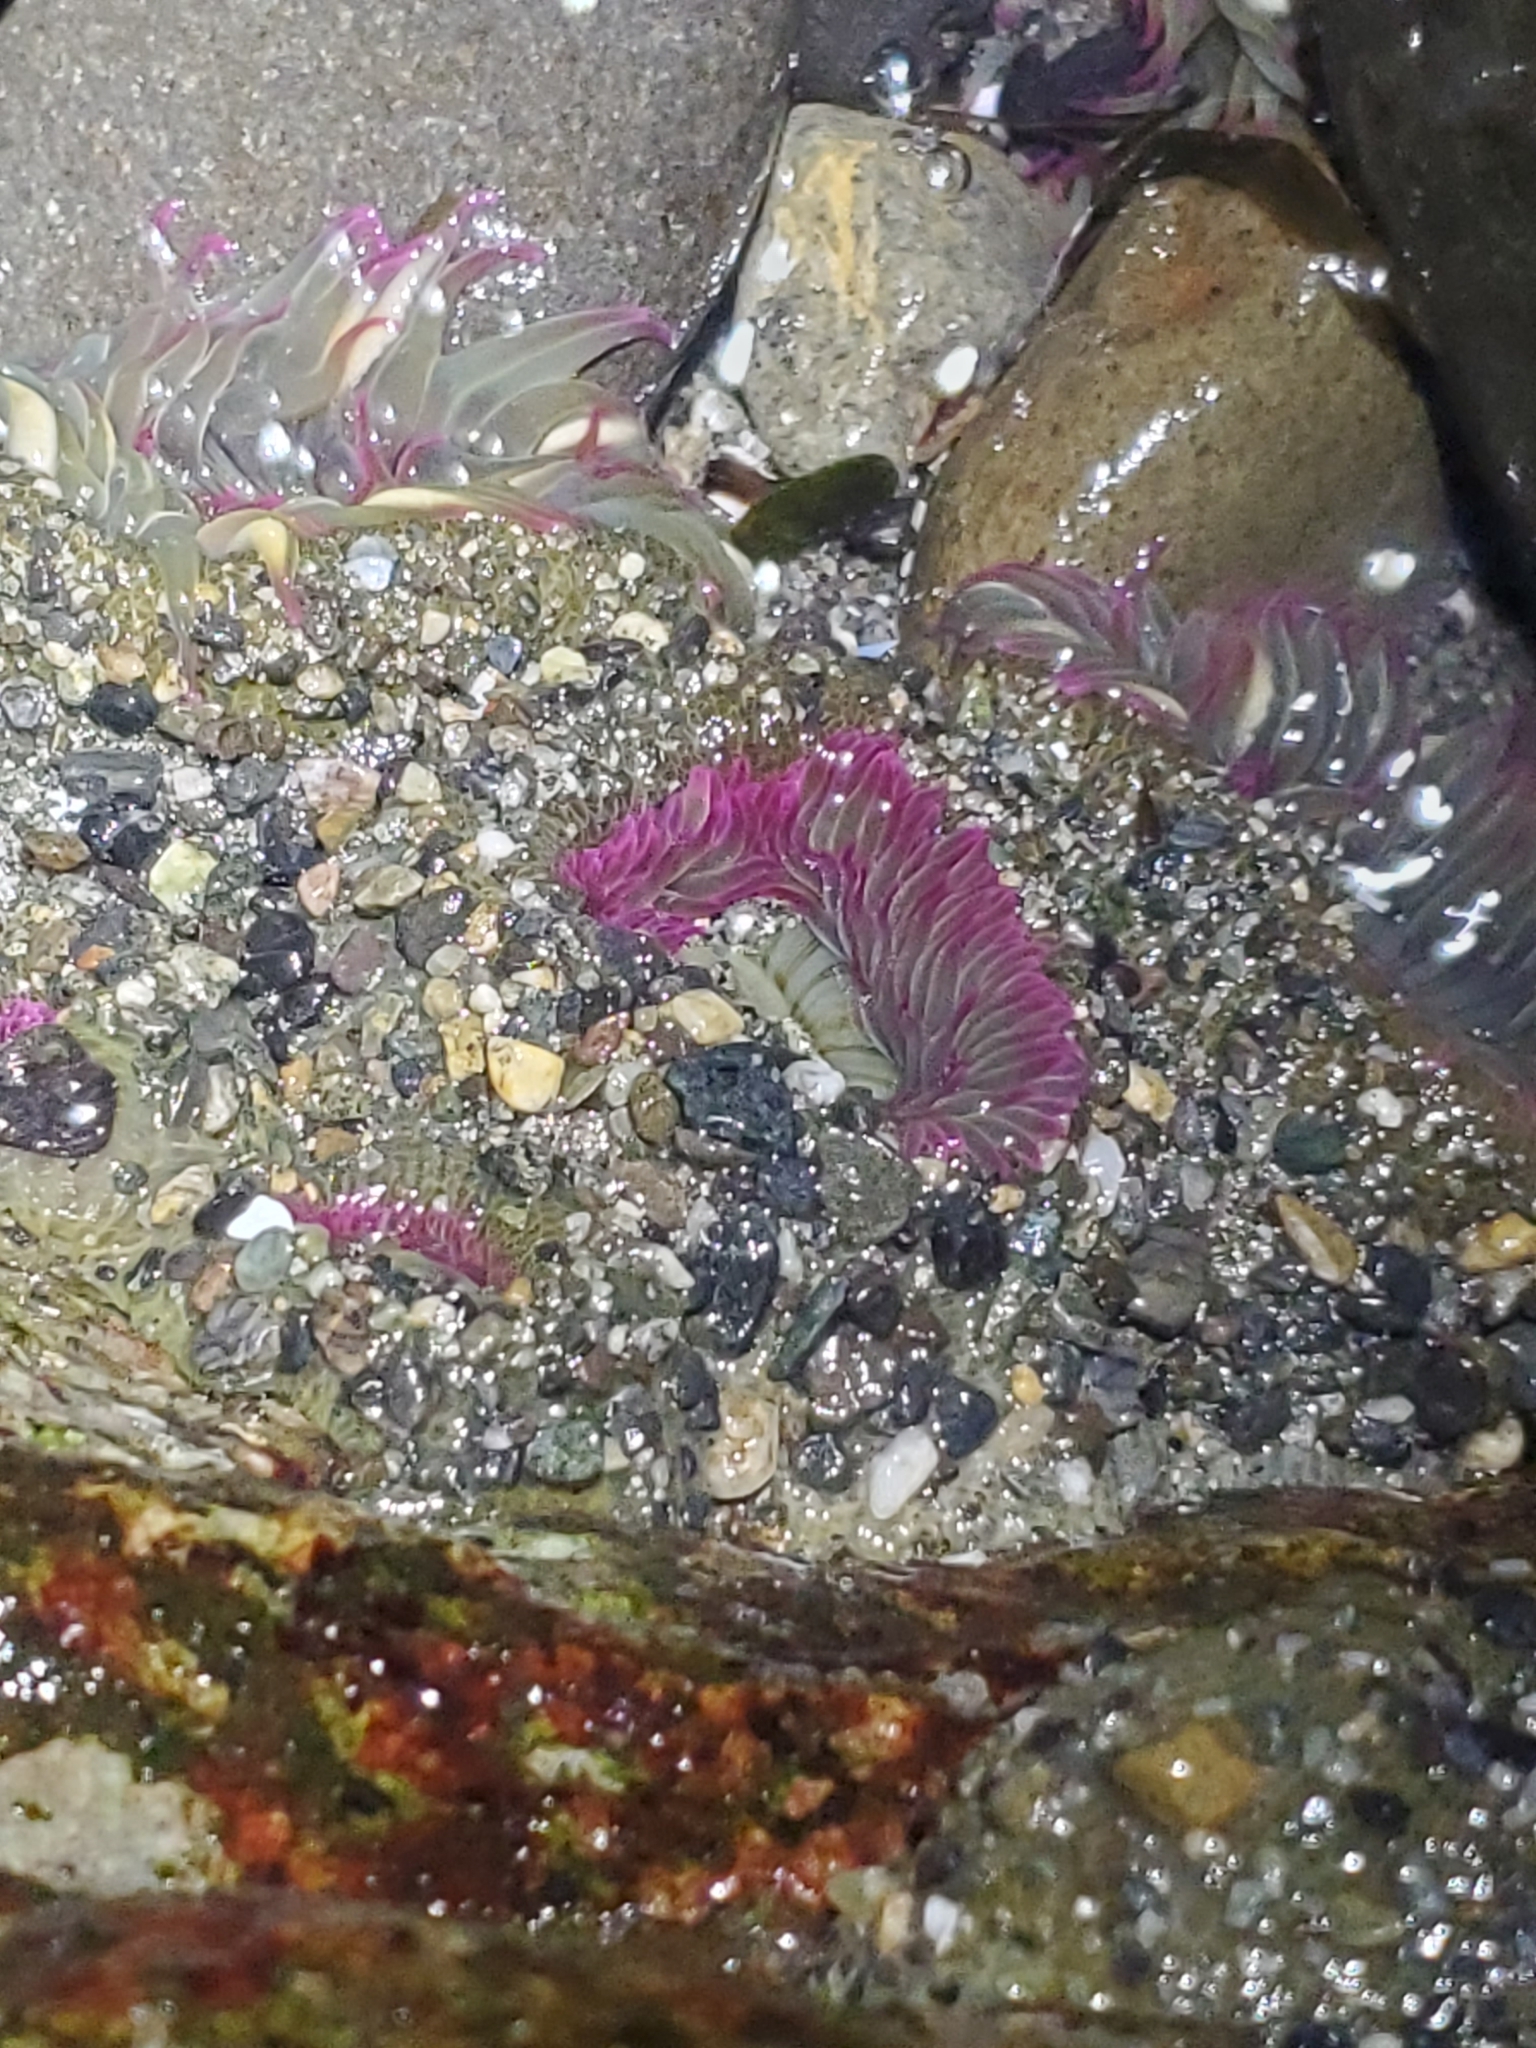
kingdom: Animalia
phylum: Cnidaria
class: Anthozoa
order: Actiniaria
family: Actiniidae
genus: Anthopleura
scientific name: Anthopleura elegantissima
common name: Clonal anemone
